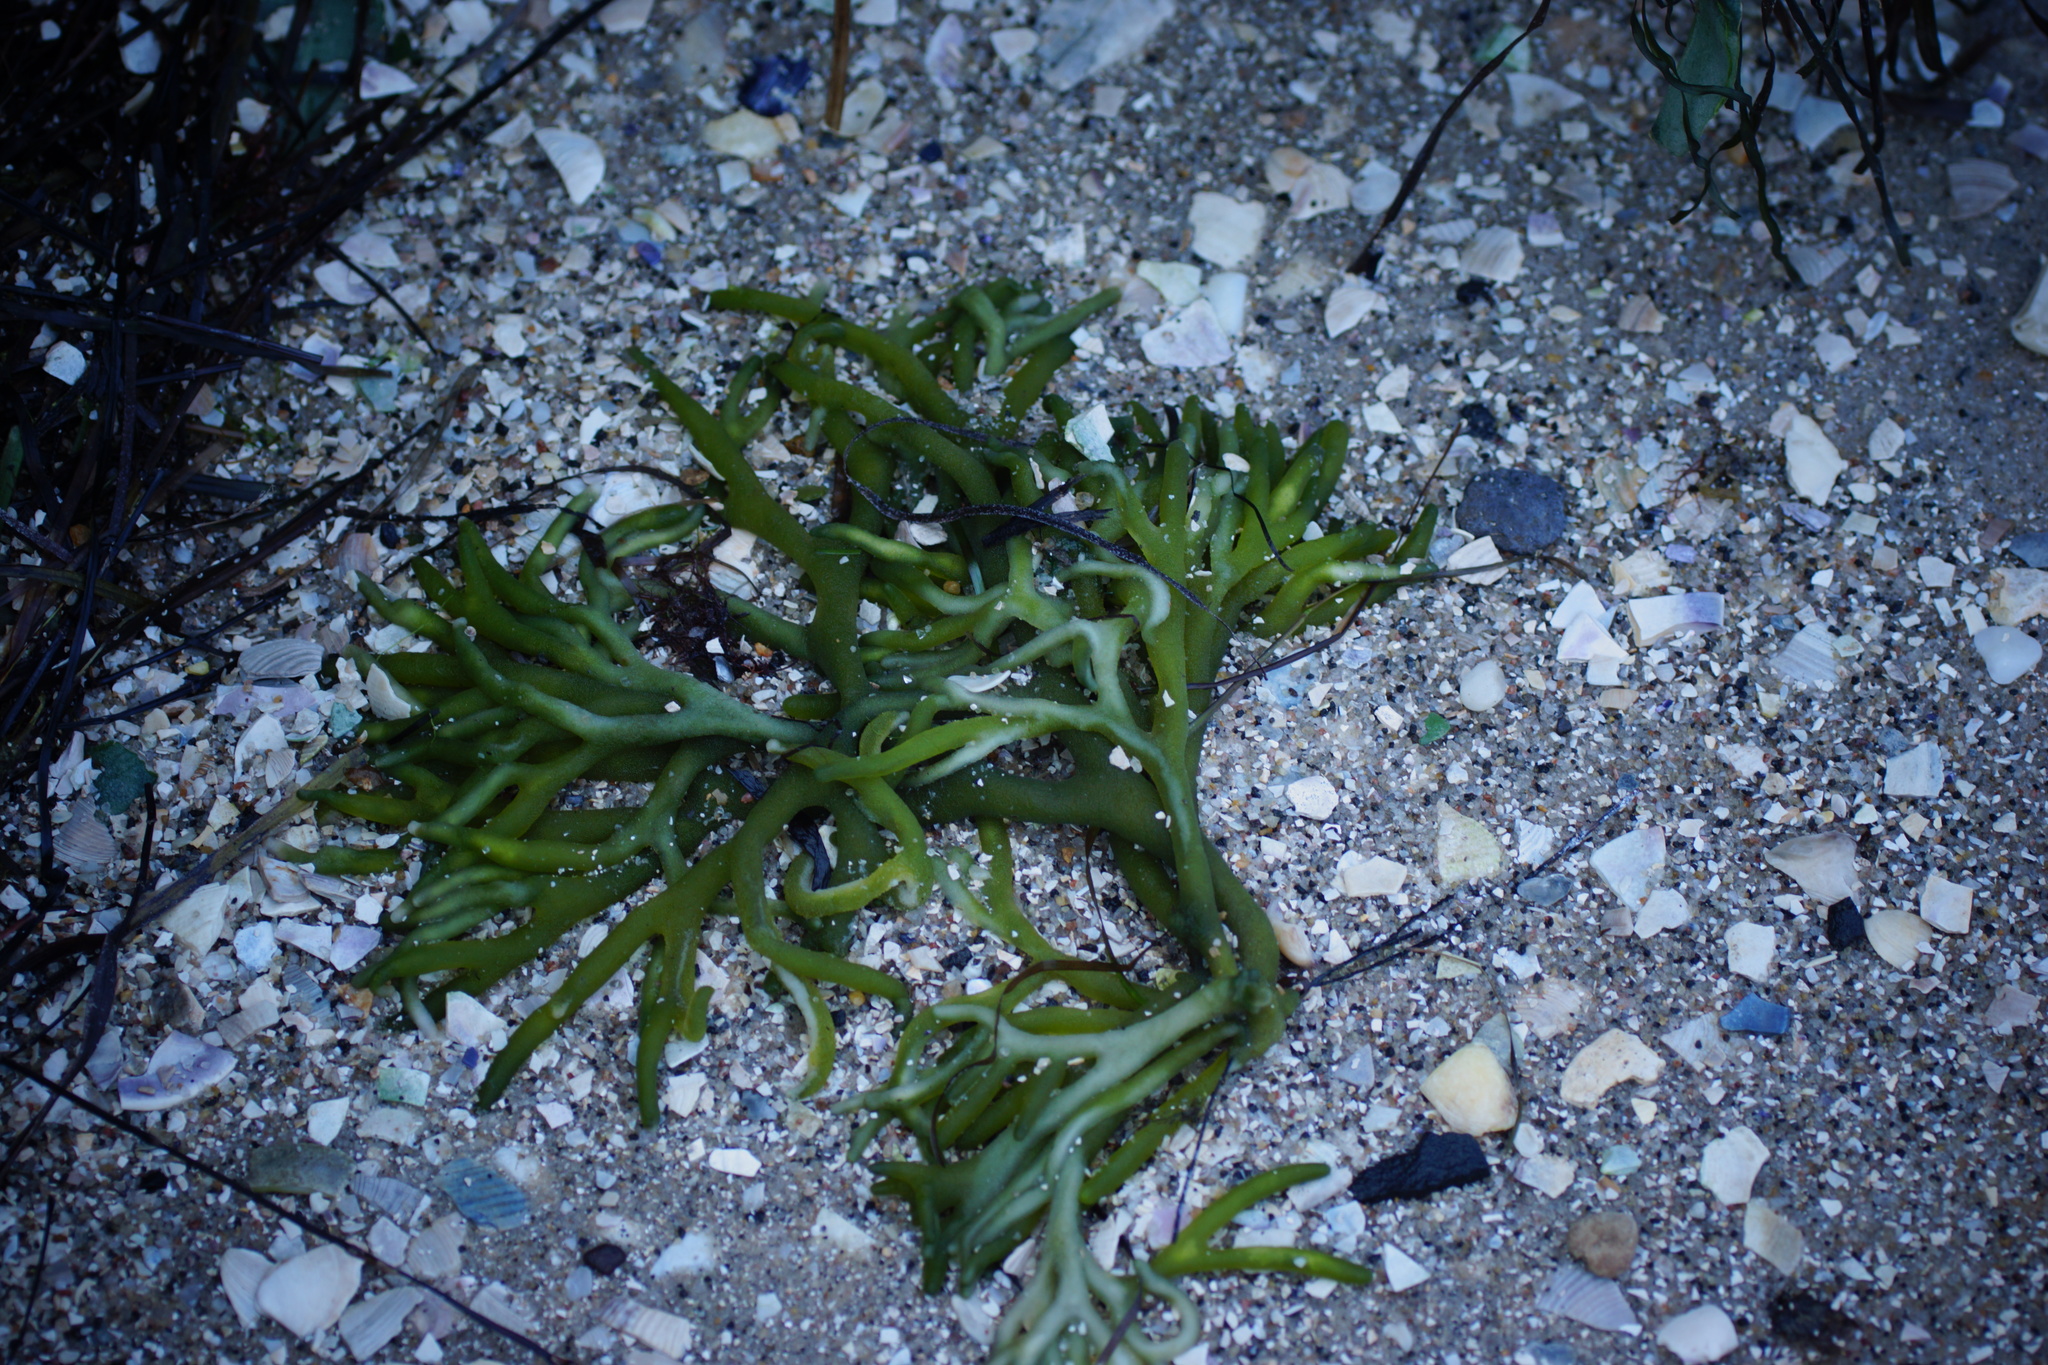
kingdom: Plantae
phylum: Chlorophyta
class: Ulvophyceae
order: Bryopsidales
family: Codiaceae
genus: Codium
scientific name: Codium fragile
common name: Dead man's fingers
